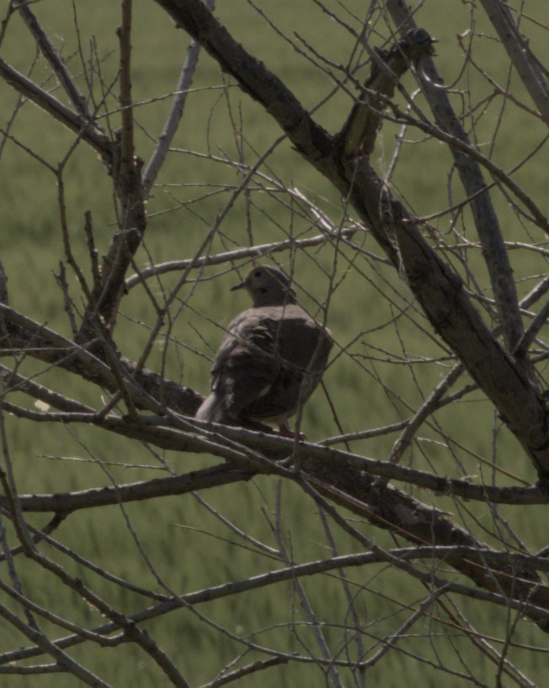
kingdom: Animalia
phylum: Chordata
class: Aves
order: Columbiformes
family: Columbidae
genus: Zenaida
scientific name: Zenaida macroura
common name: Mourning dove
